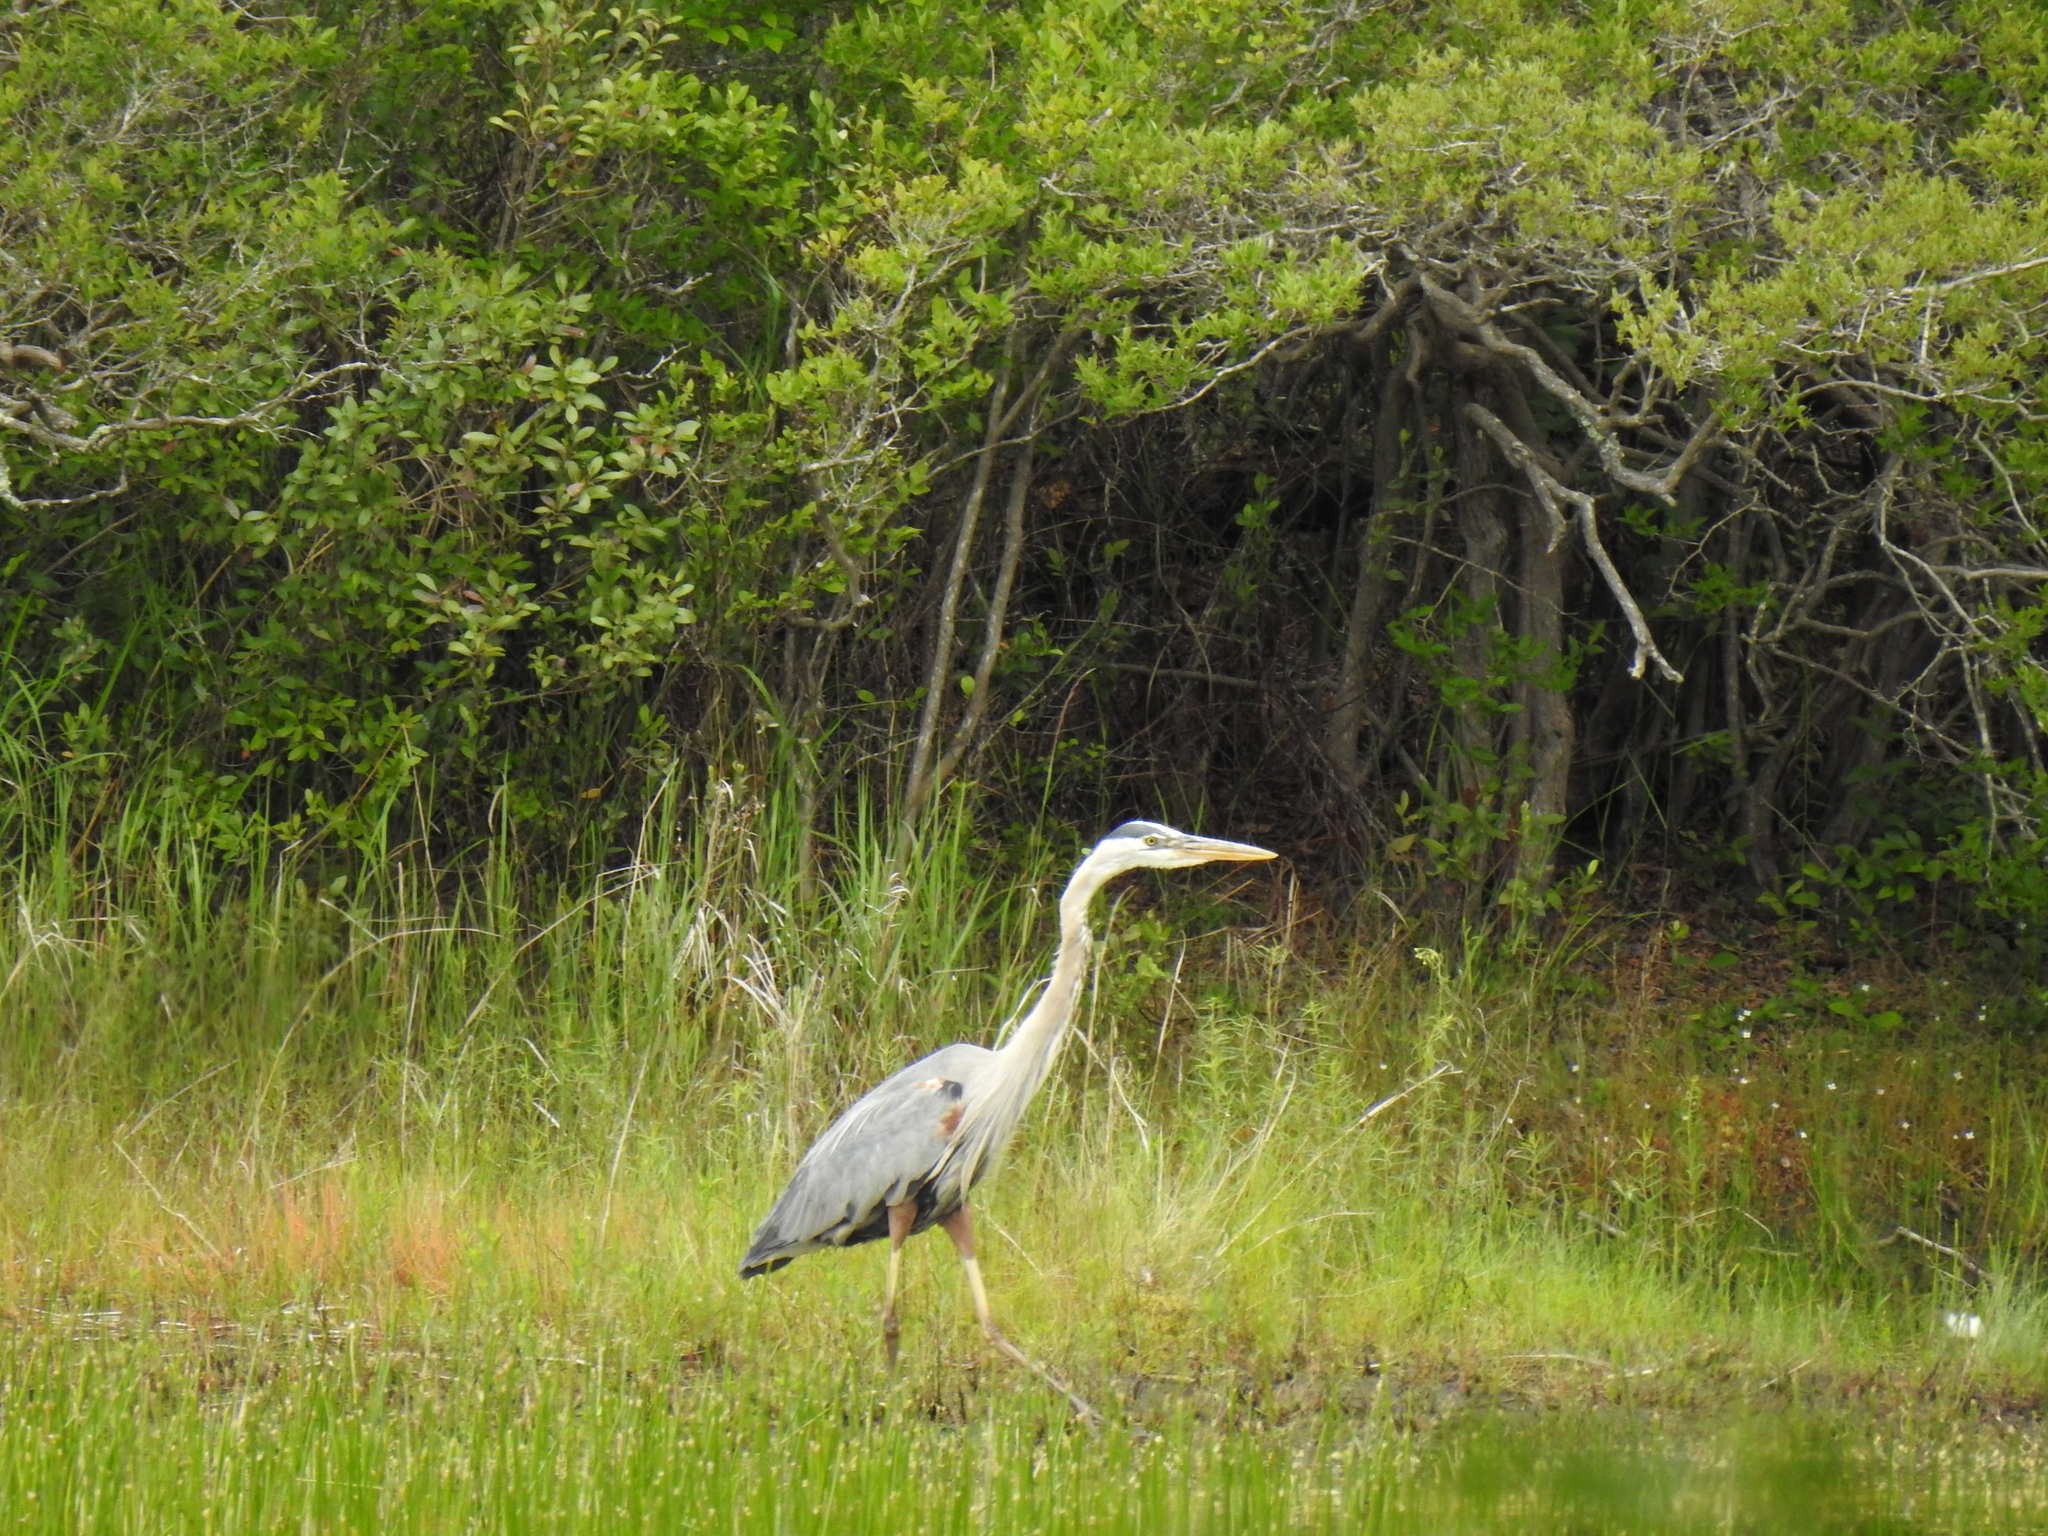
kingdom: Animalia
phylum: Chordata
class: Aves
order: Pelecaniformes
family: Ardeidae
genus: Ardea
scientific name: Ardea herodias
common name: Great blue heron
